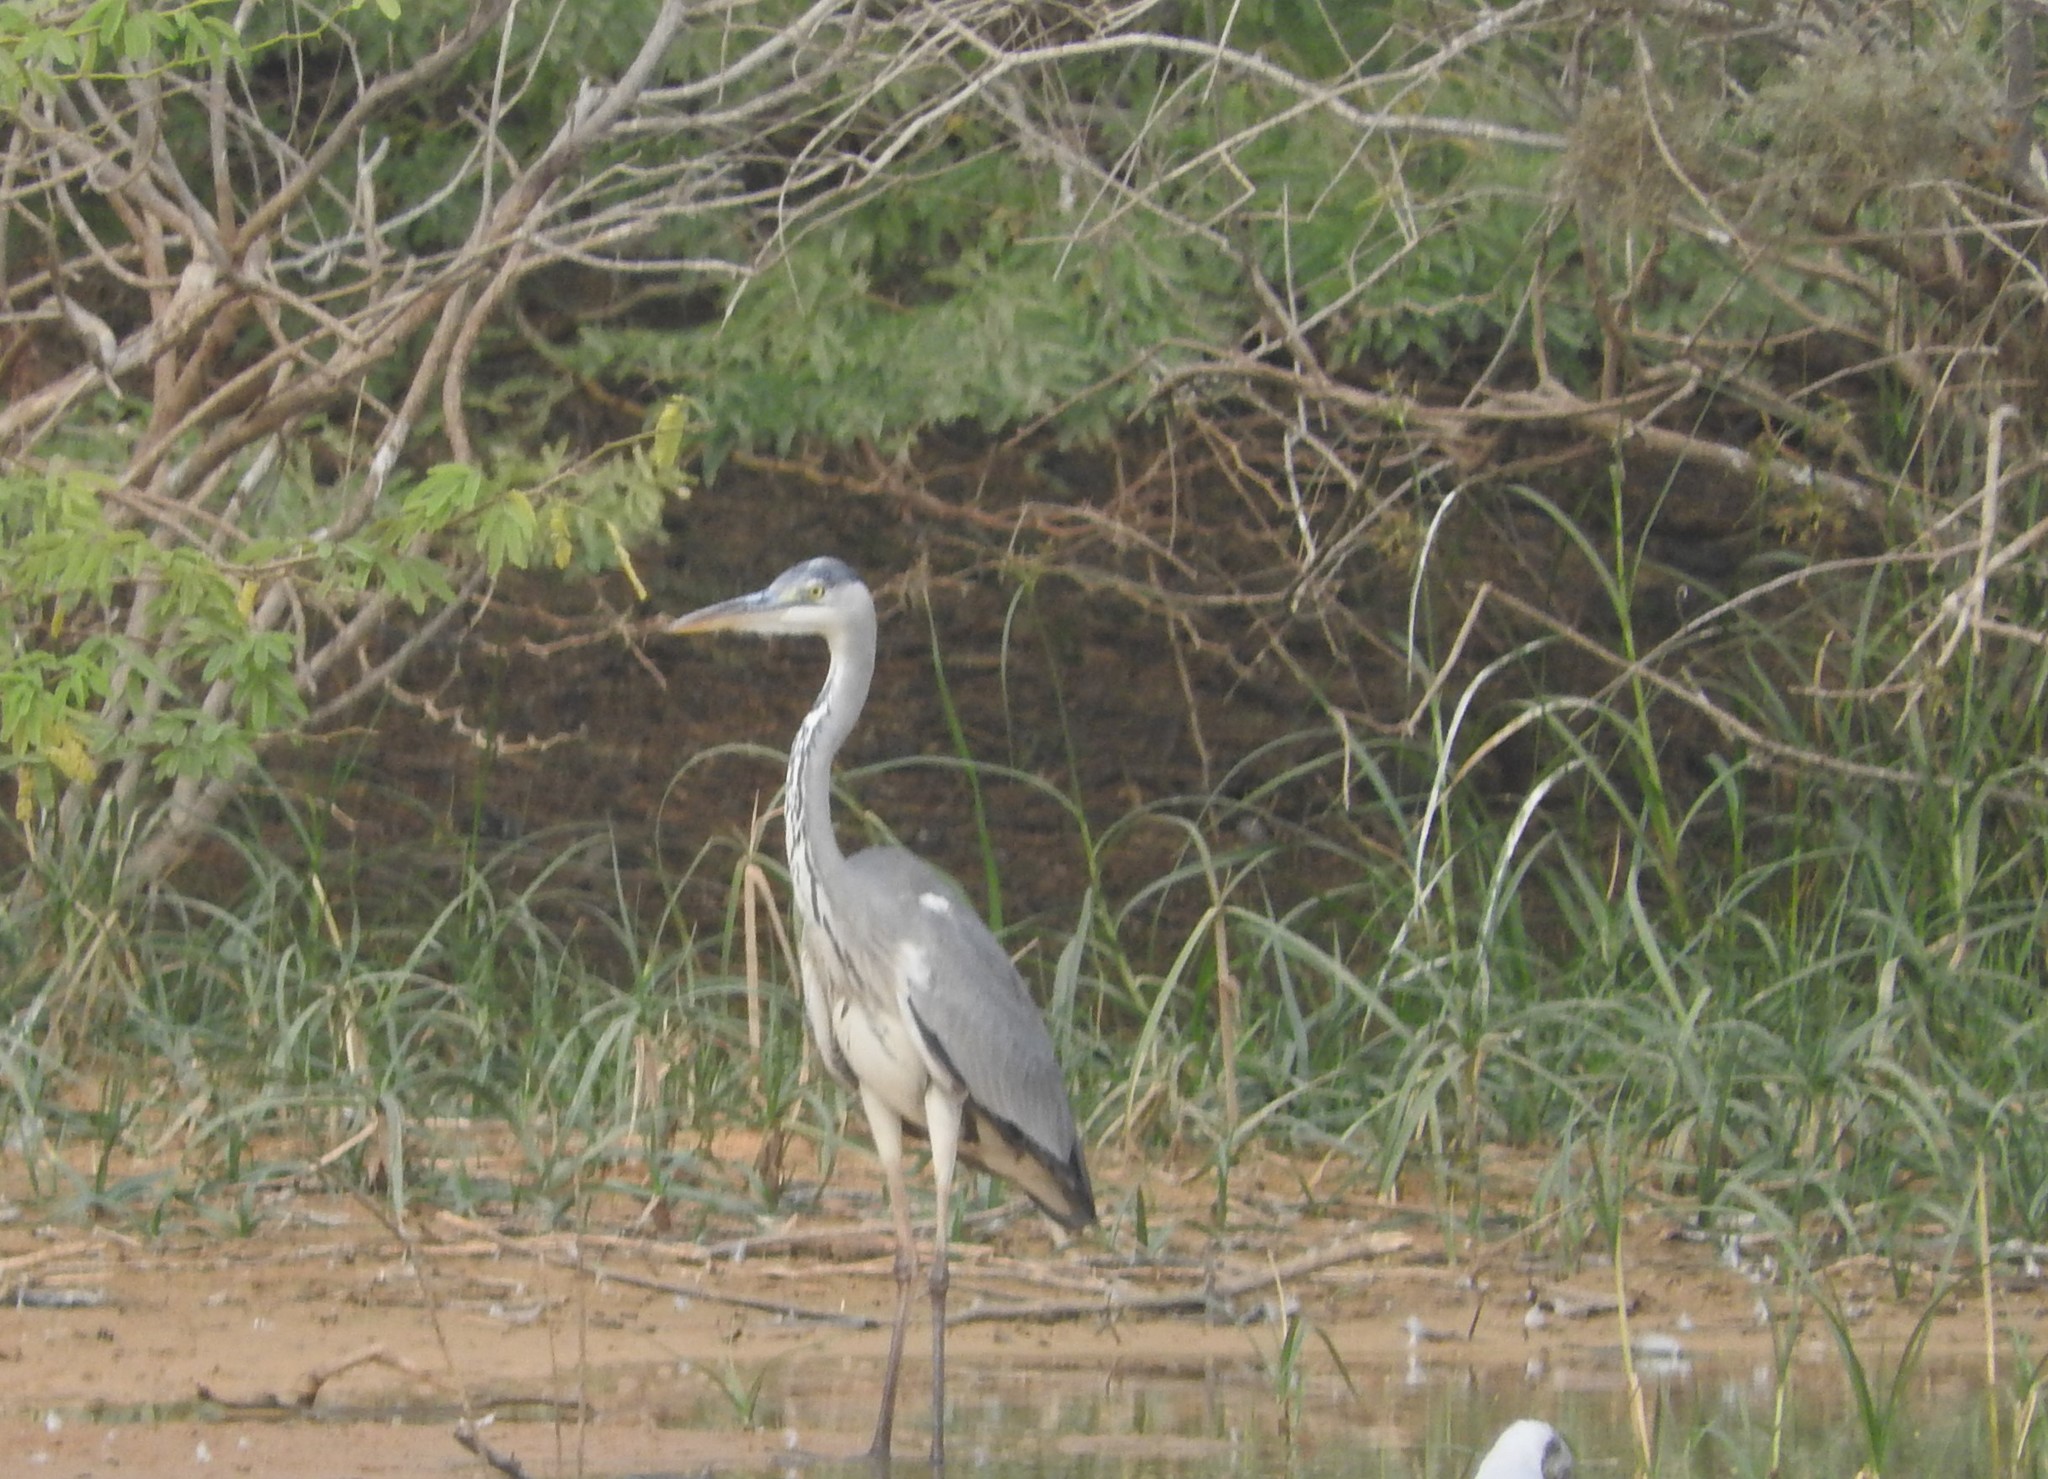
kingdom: Animalia
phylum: Chordata
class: Aves
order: Pelecaniformes
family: Ardeidae
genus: Ardea
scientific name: Ardea cinerea
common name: Grey heron
